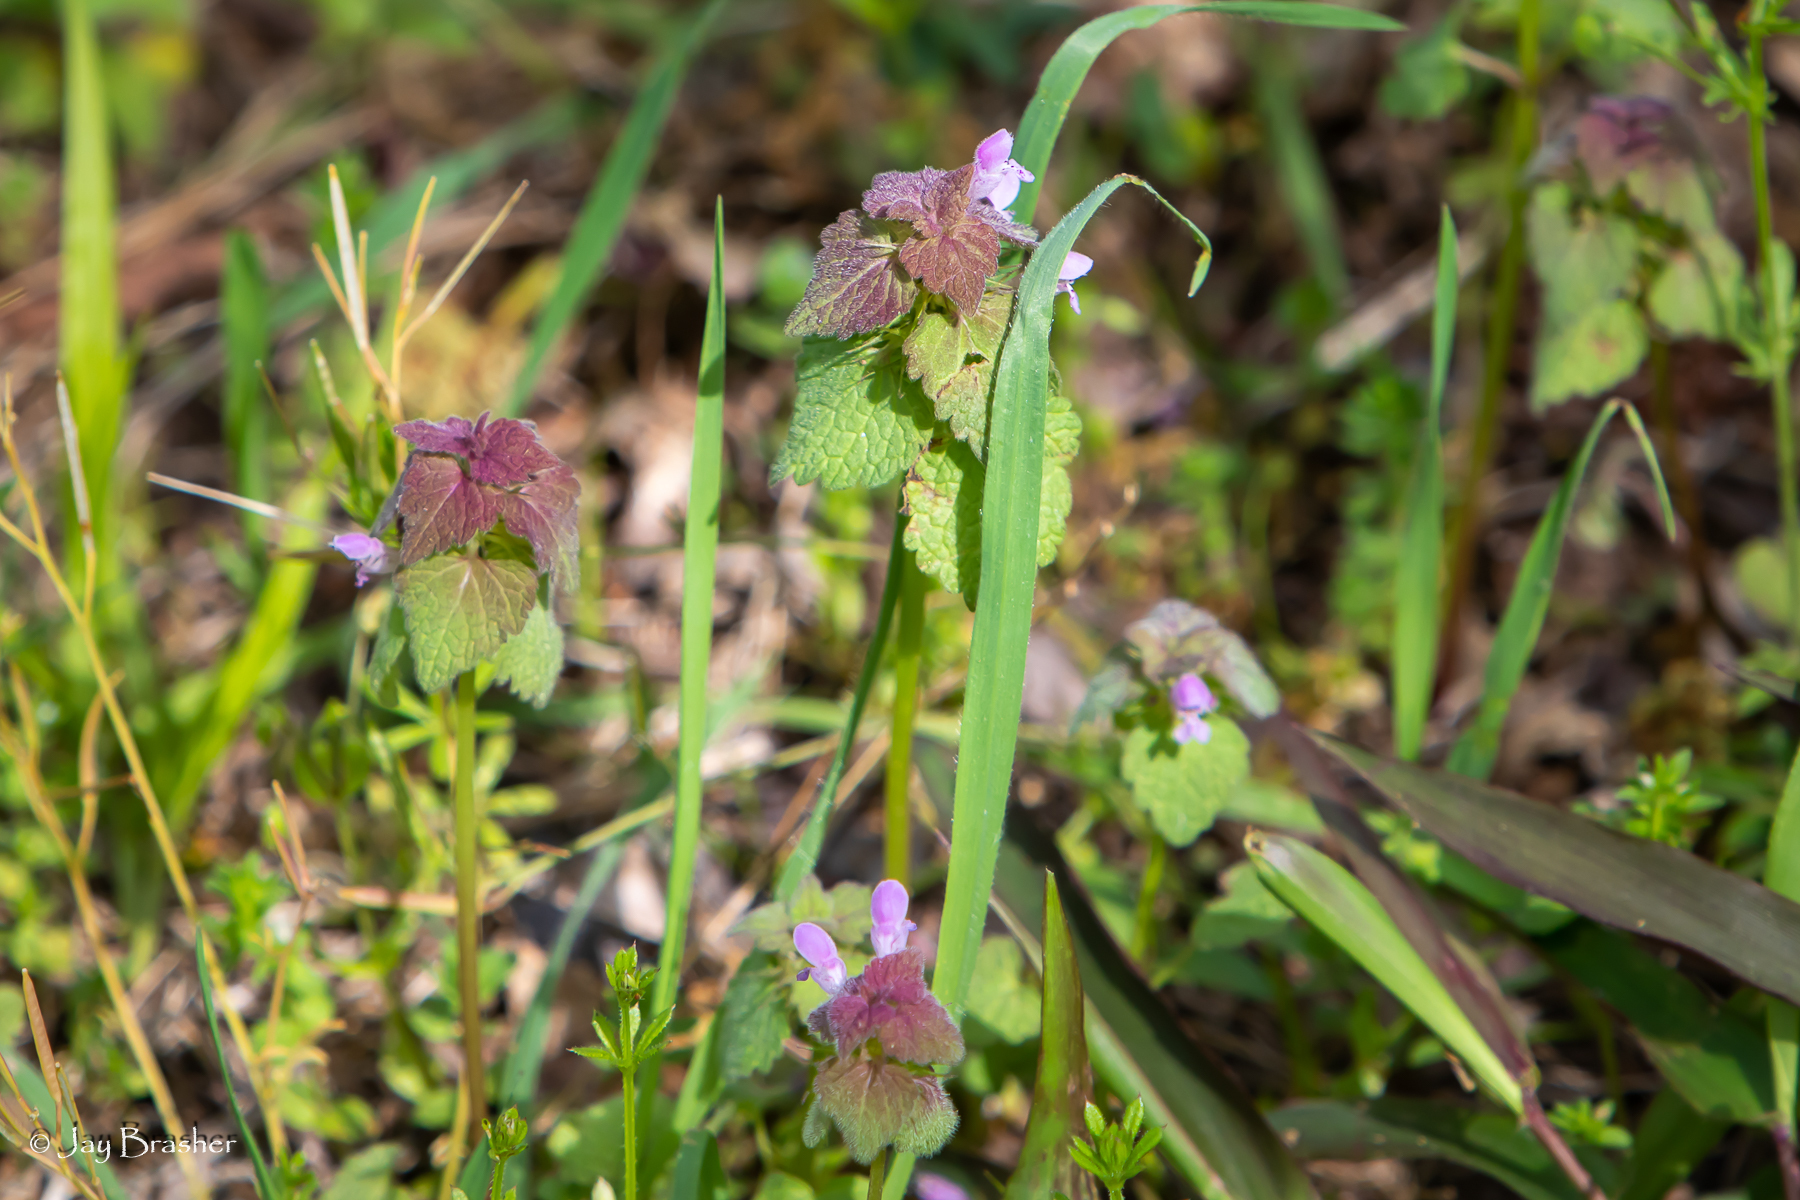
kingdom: Plantae
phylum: Tracheophyta
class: Magnoliopsida
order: Lamiales
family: Lamiaceae
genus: Lamium
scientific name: Lamium purpureum
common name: Red dead-nettle
